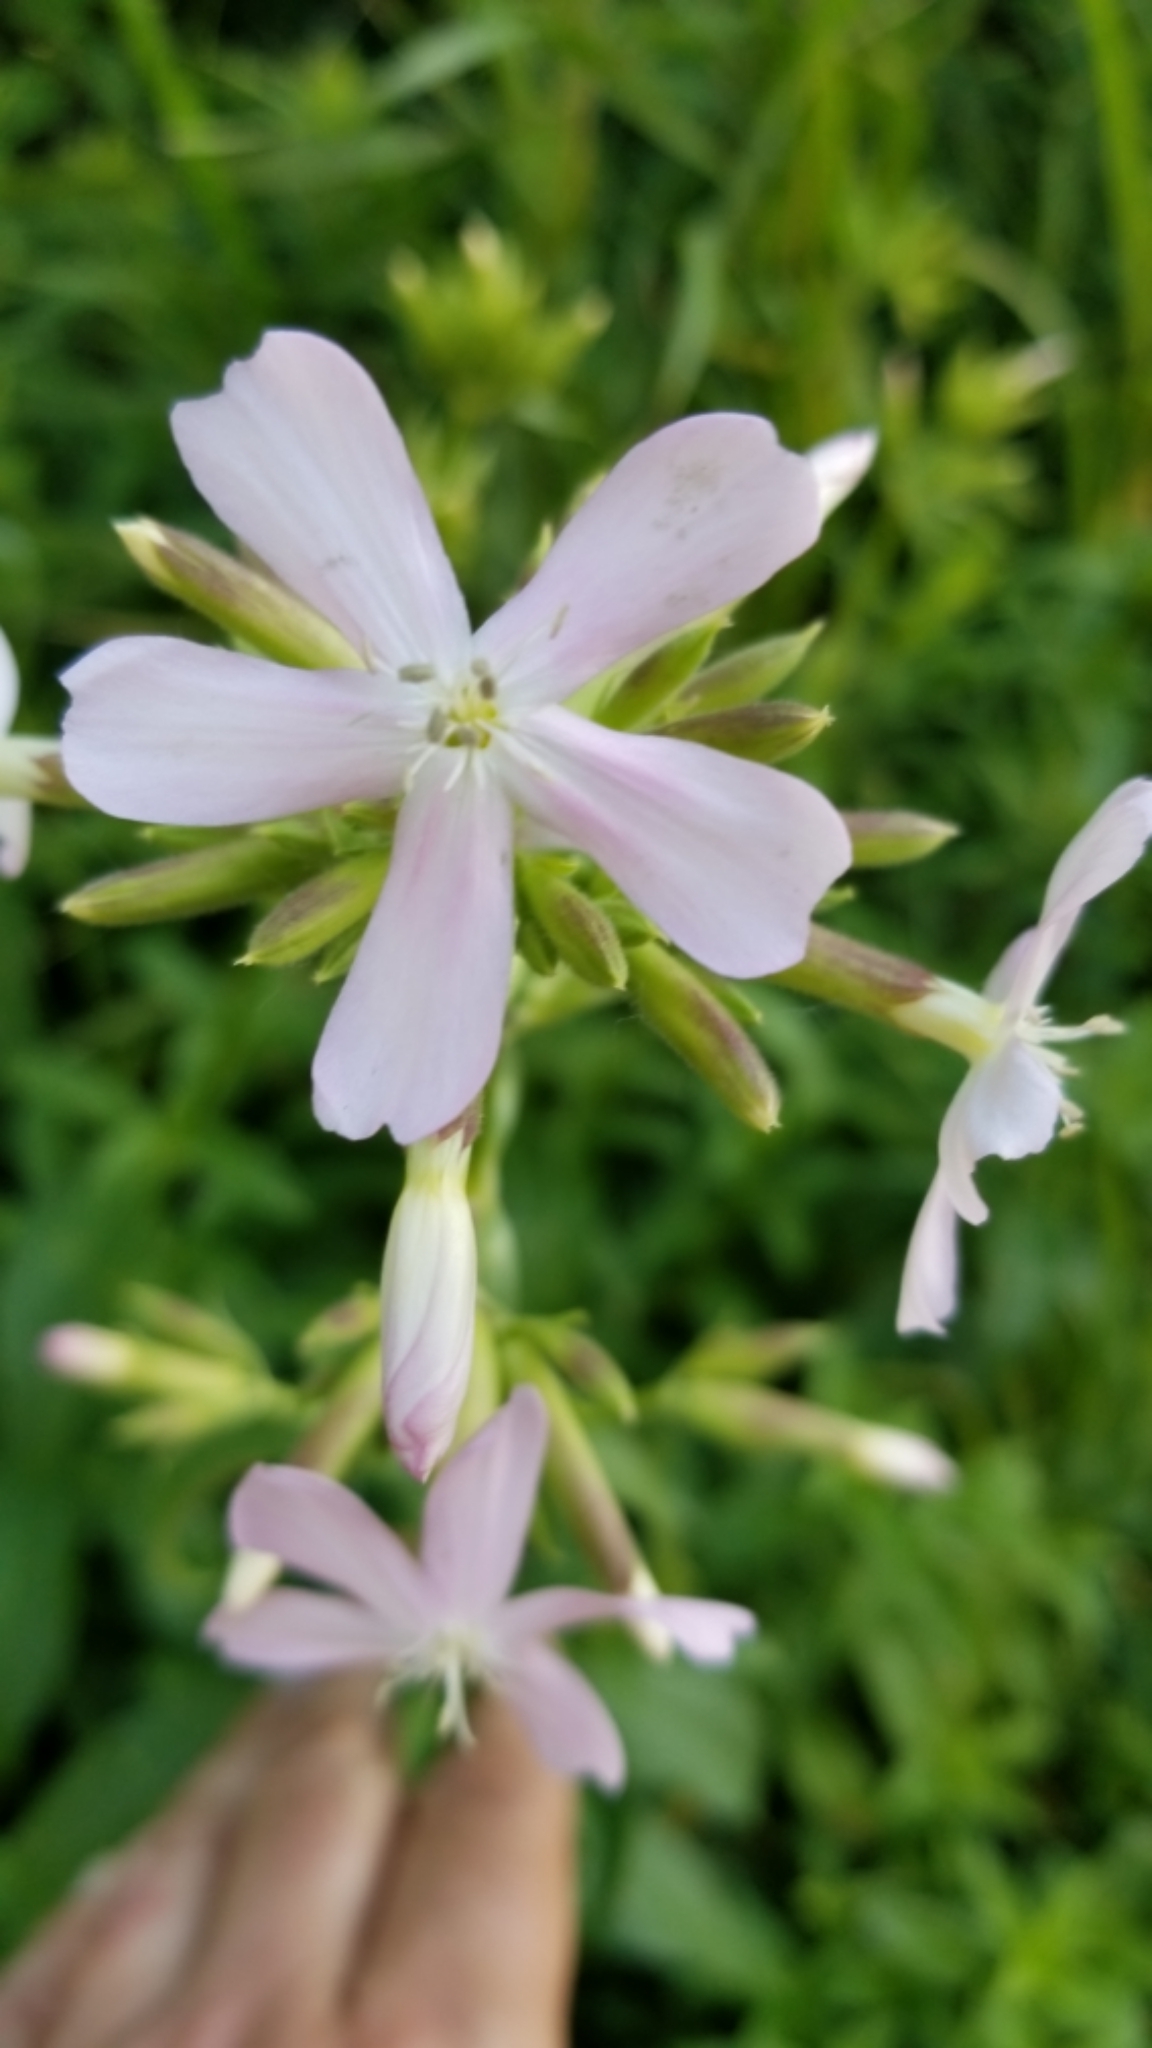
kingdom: Plantae
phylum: Tracheophyta
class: Magnoliopsida
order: Caryophyllales
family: Caryophyllaceae
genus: Saponaria
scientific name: Saponaria officinalis
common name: Soapwort
